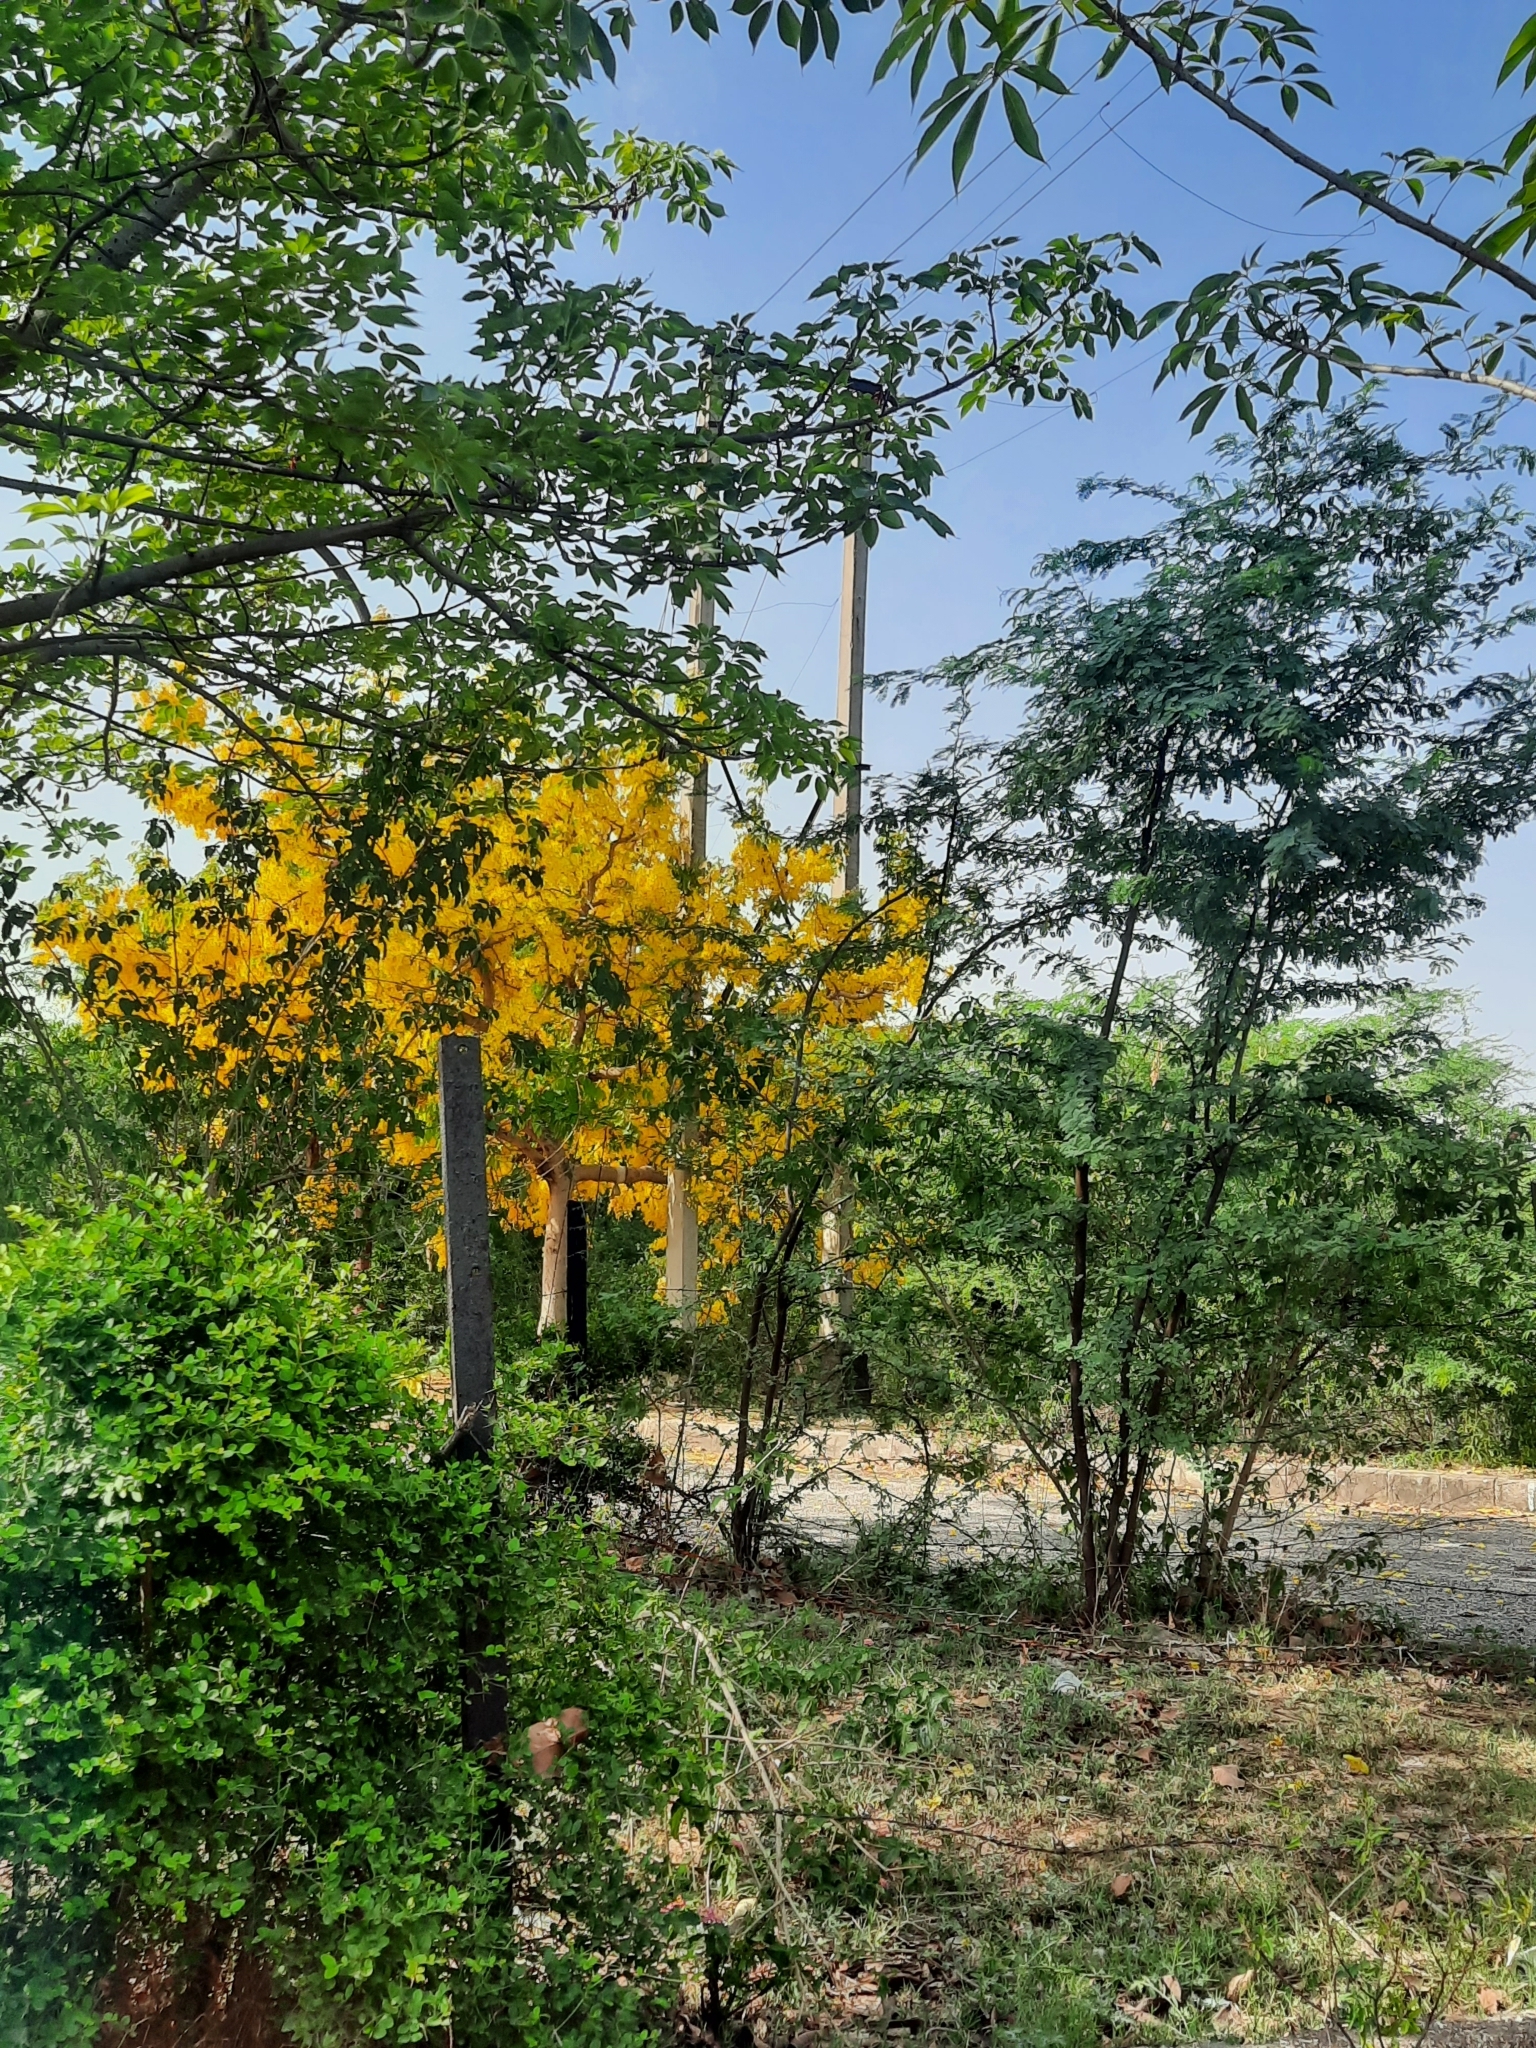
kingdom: Plantae
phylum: Tracheophyta
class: Magnoliopsida
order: Fabales
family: Fabaceae
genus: Cassia
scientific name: Cassia fistula
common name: Golden shower
